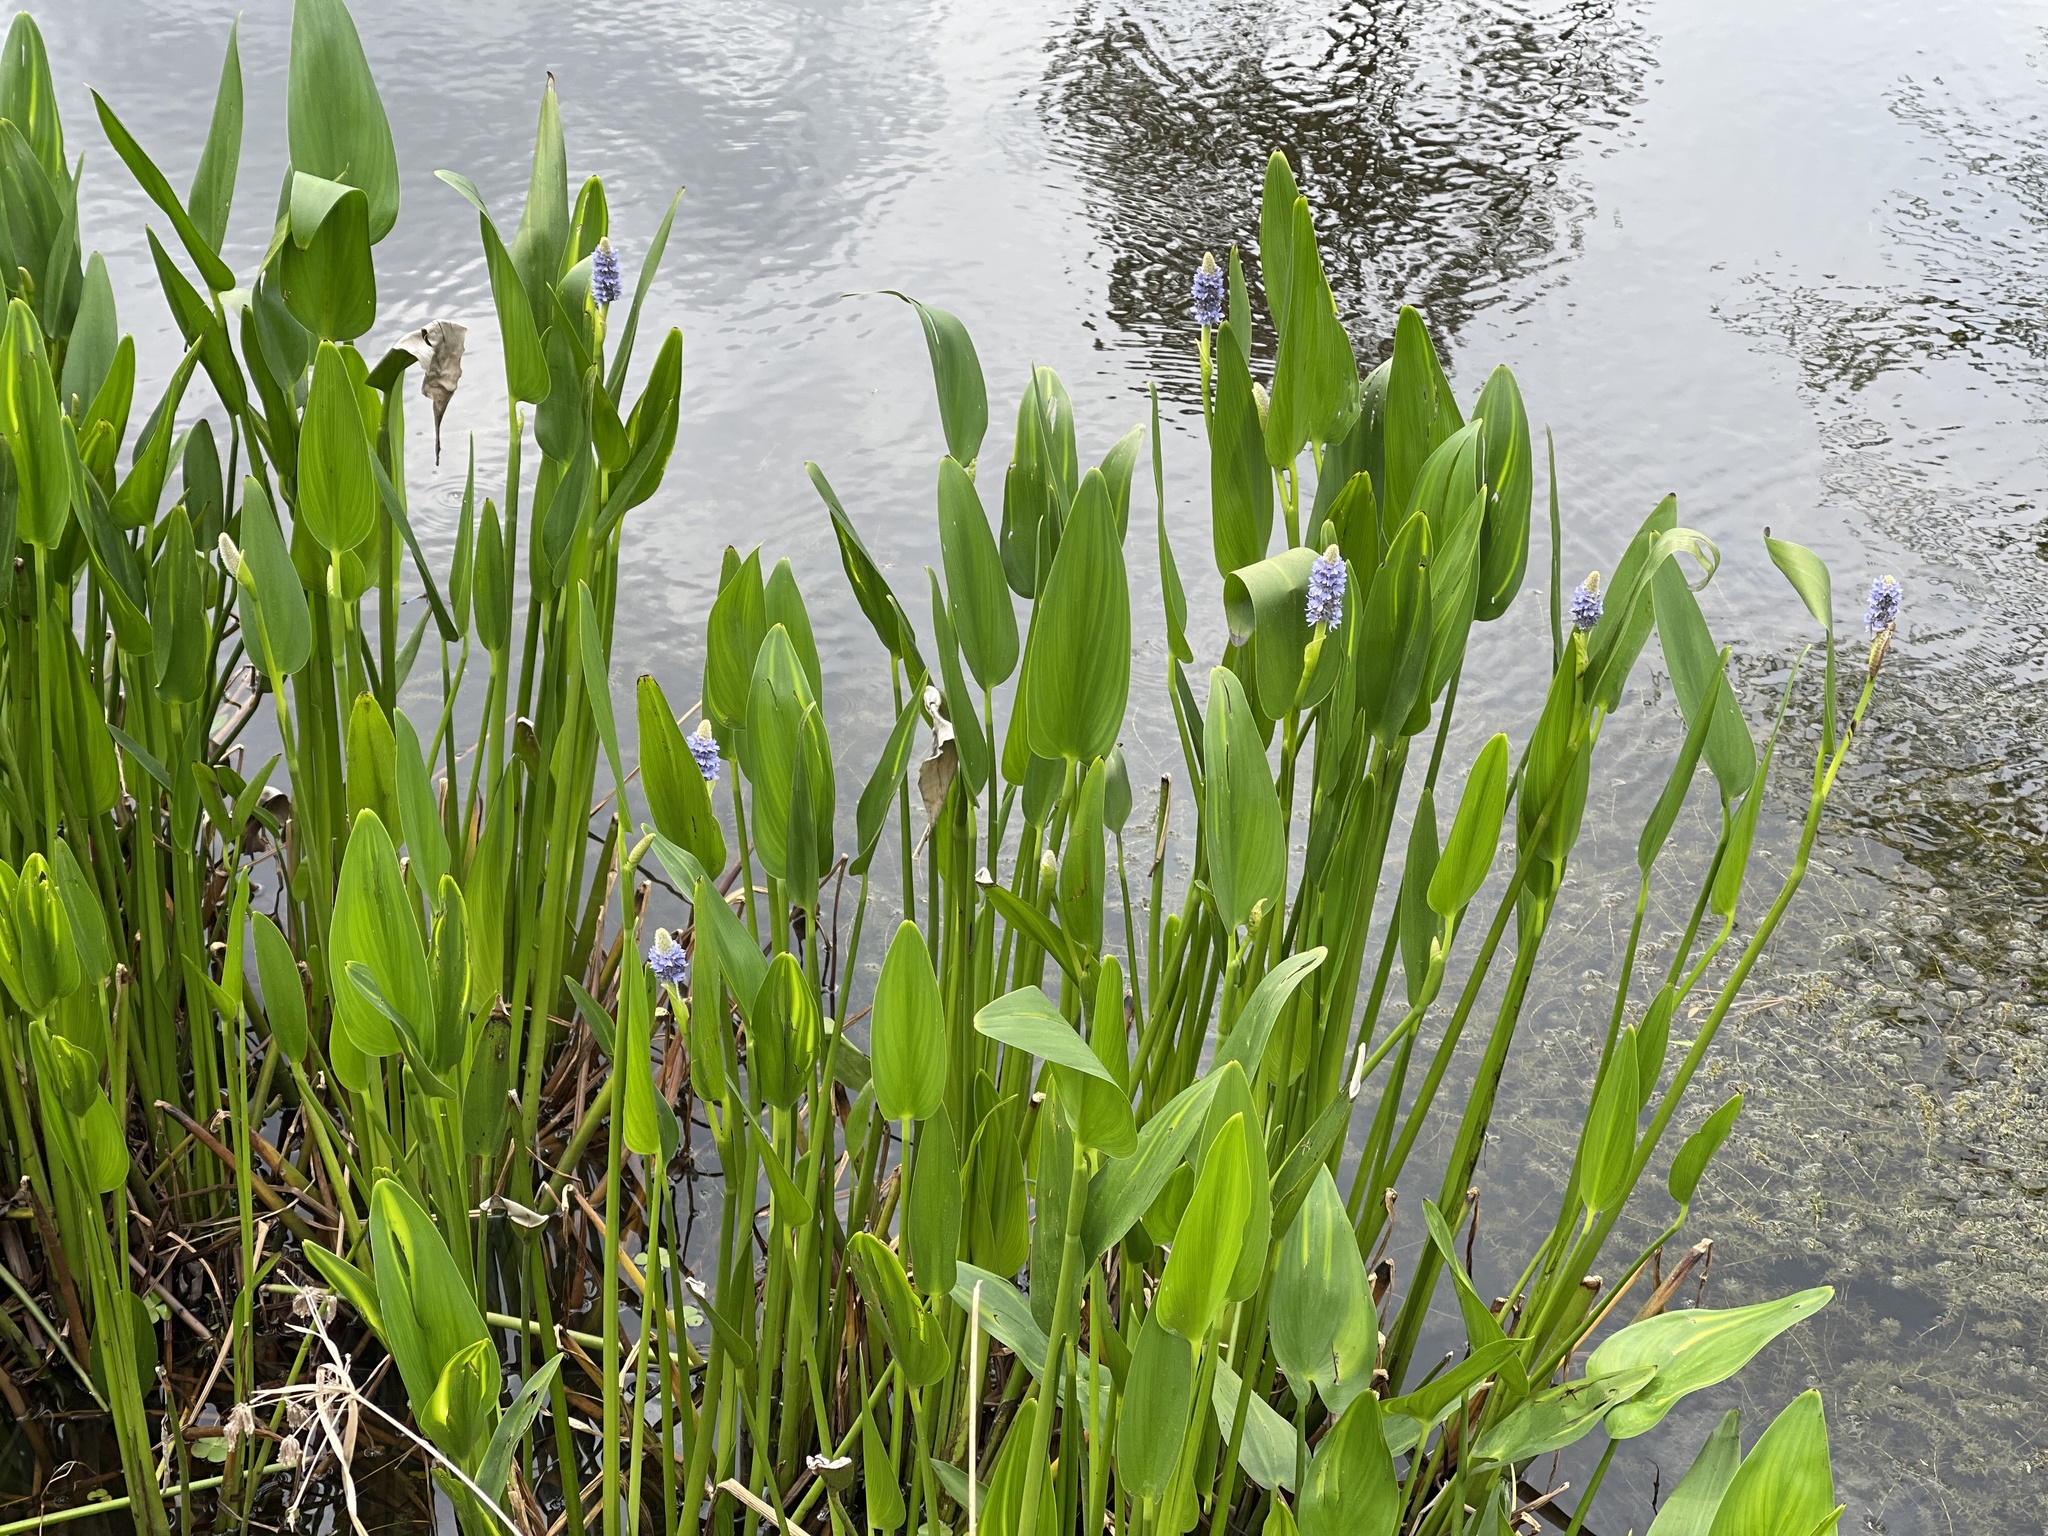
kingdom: Plantae
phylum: Tracheophyta
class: Liliopsida
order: Commelinales
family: Pontederiaceae
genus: Pontederia
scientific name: Pontederia cordata
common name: Pickerelweed
